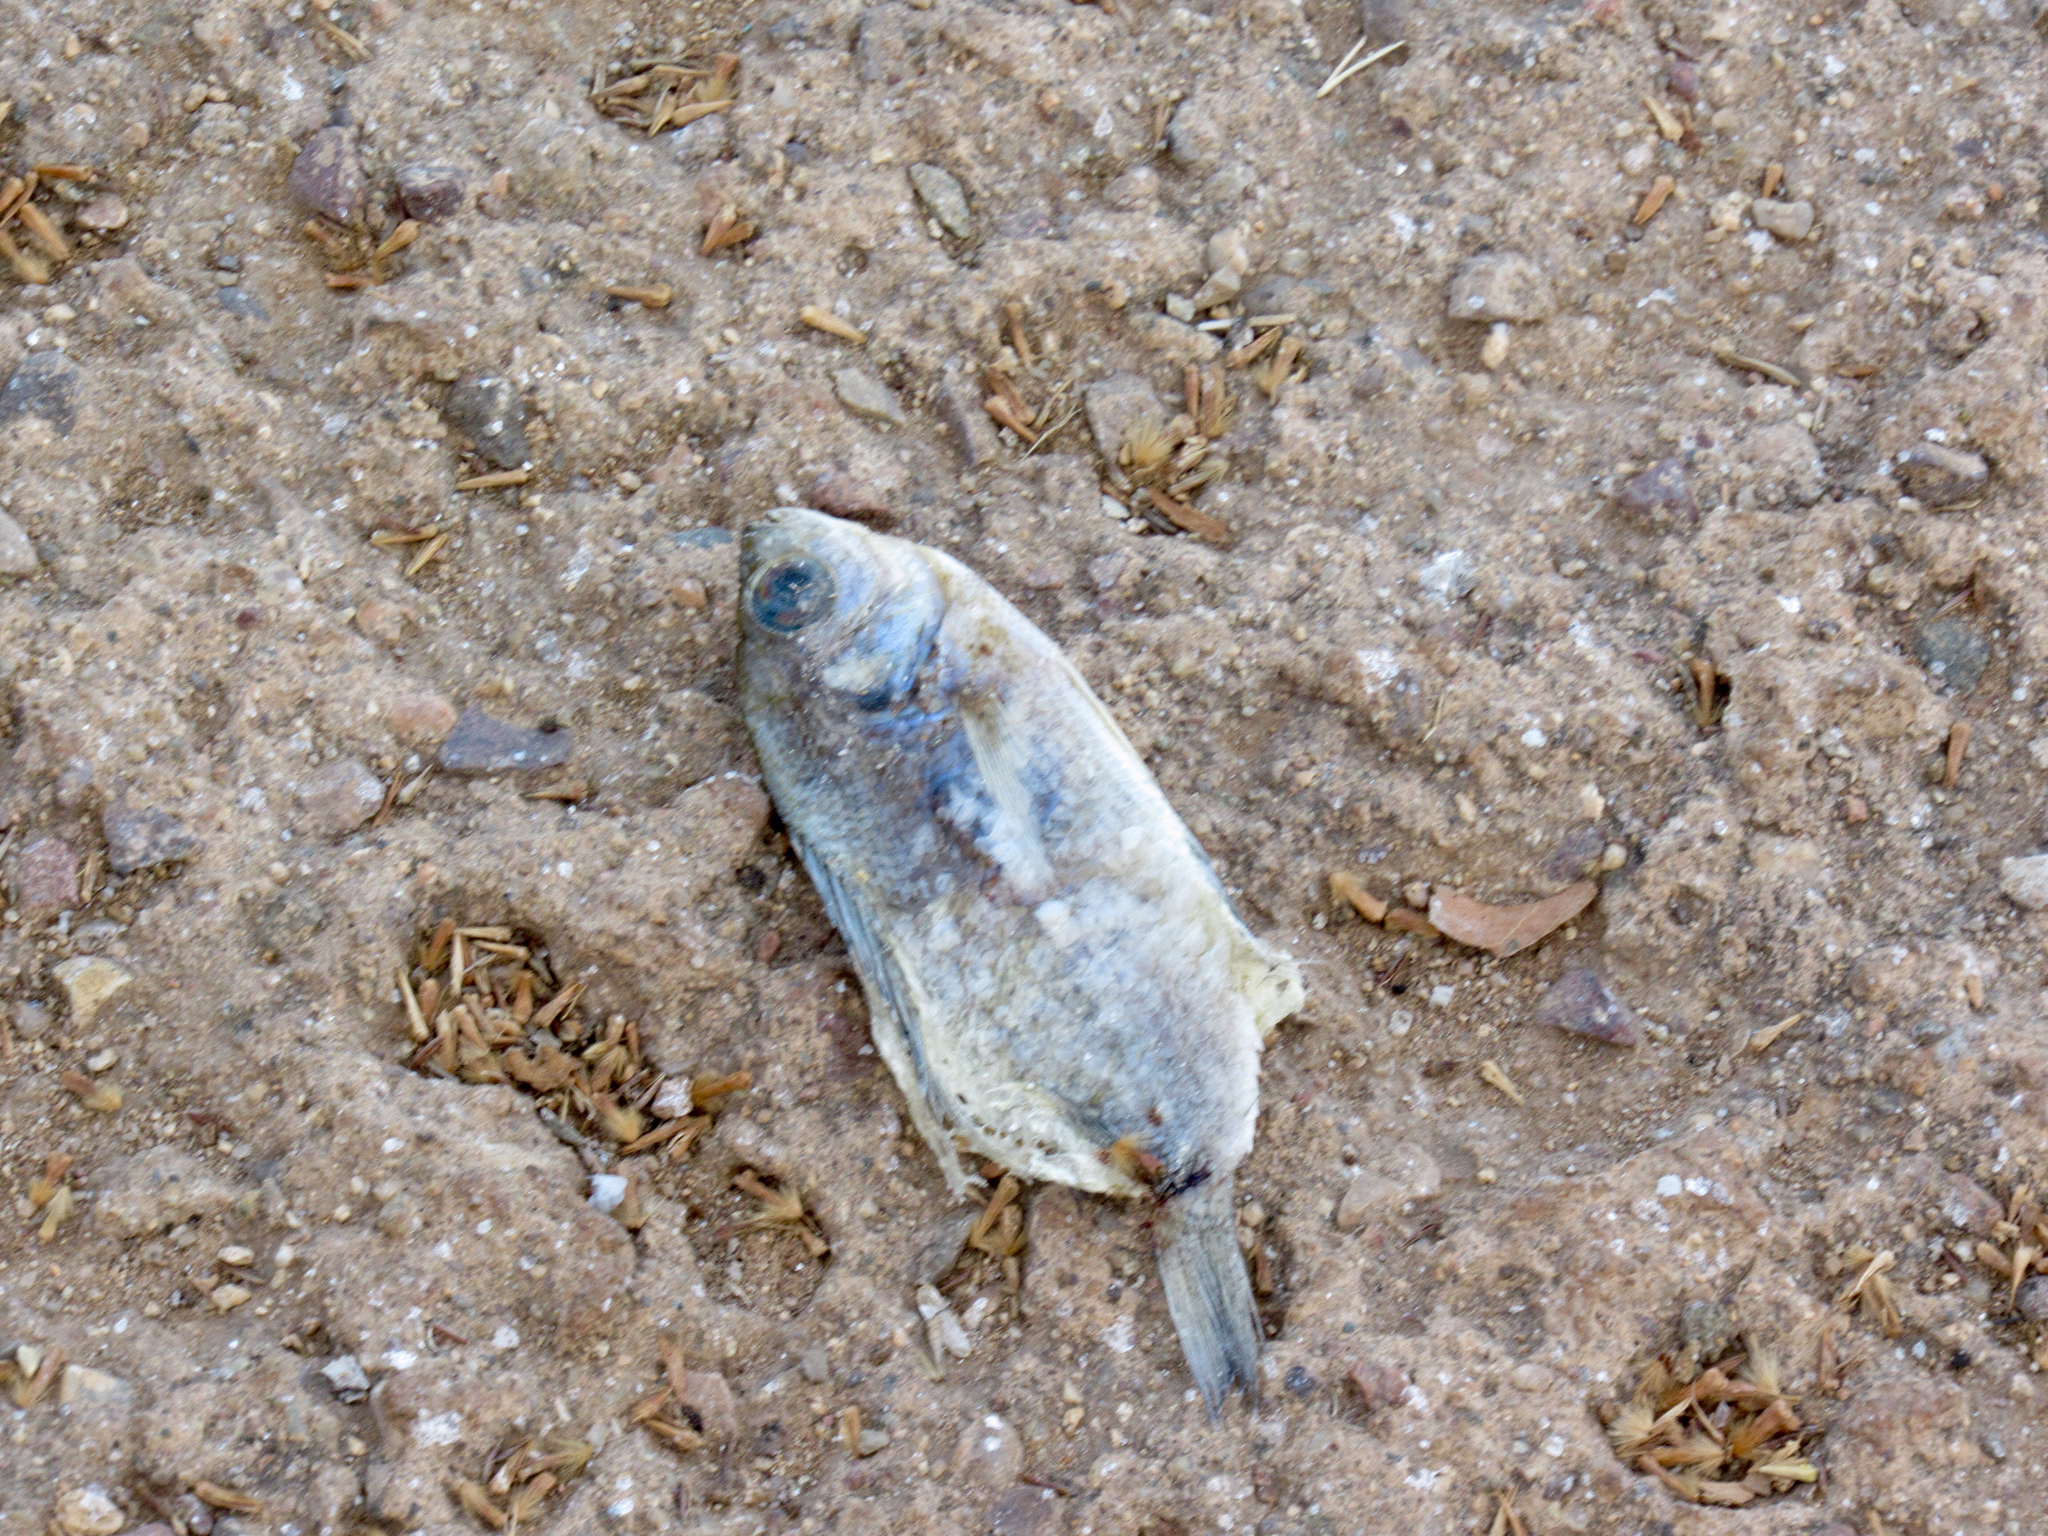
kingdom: Animalia
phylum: Chordata
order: Perciformes
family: Centrarchidae
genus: Lepomis
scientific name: Lepomis cyanellus
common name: Green sunfish
